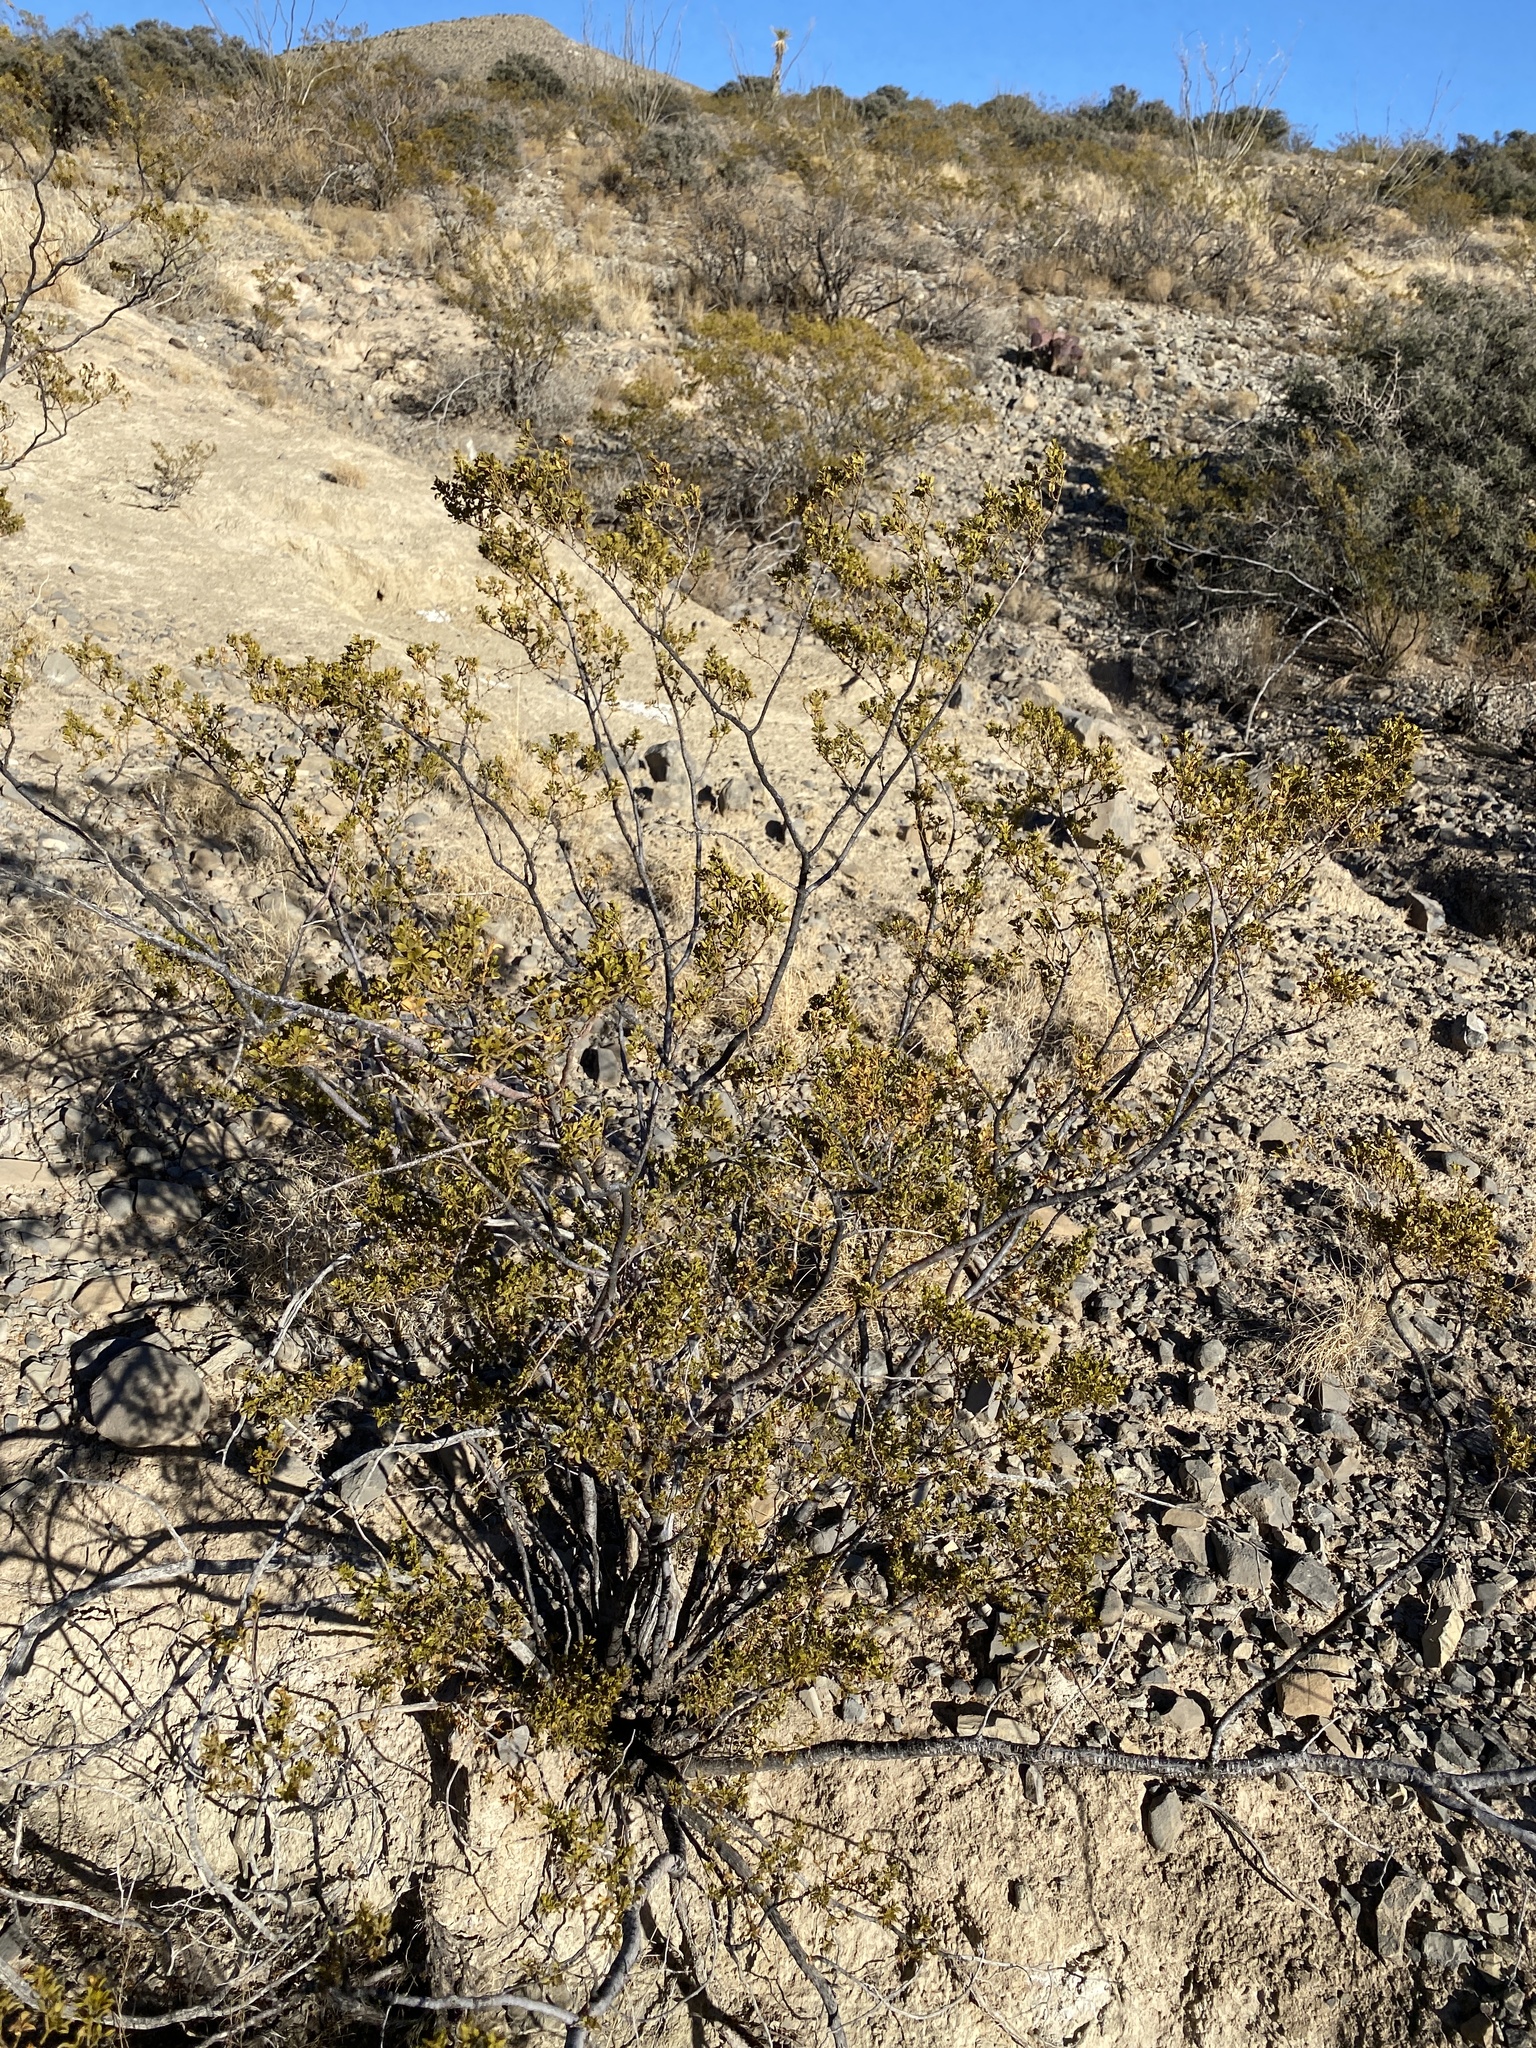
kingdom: Plantae
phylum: Tracheophyta
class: Magnoliopsida
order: Zygophyllales
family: Zygophyllaceae
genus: Larrea
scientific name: Larrea tridentata
